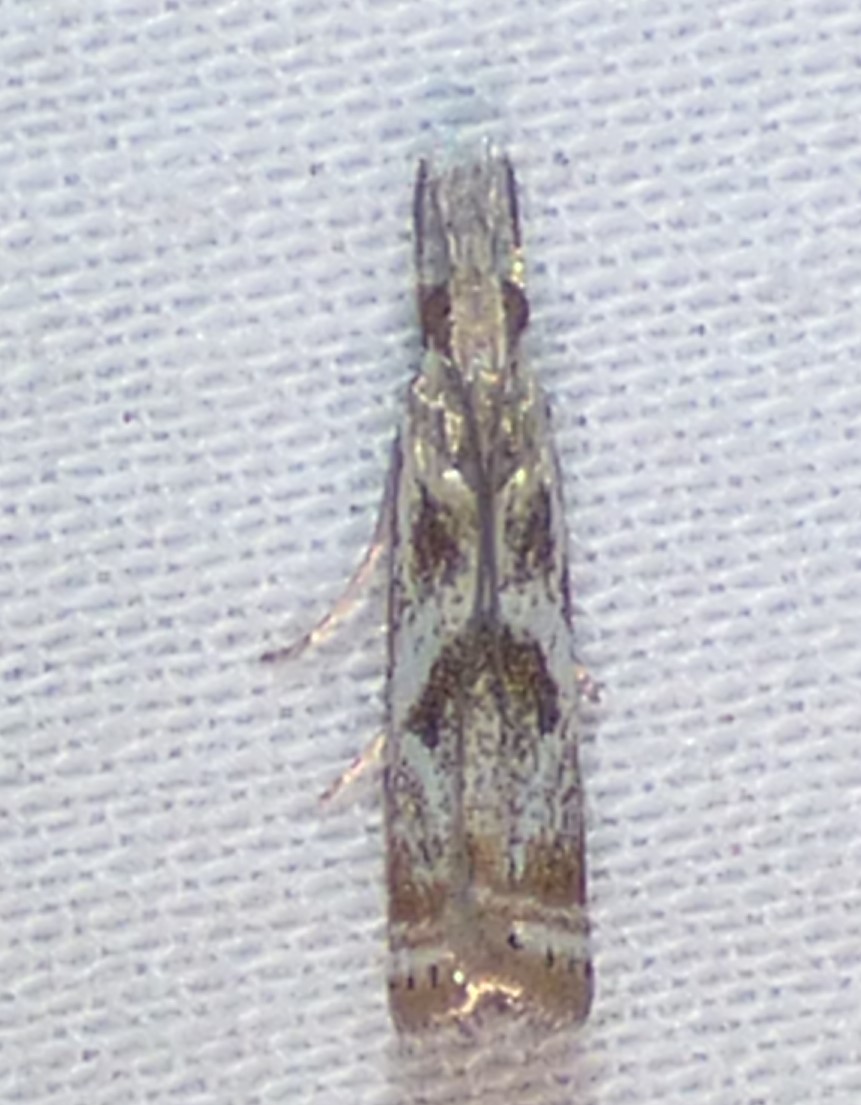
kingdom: Animalia
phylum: Arthropoda
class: Insecta
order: Lepidoptera
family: Crambidae
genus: Microcrambus
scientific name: Microcrambus immunellus
